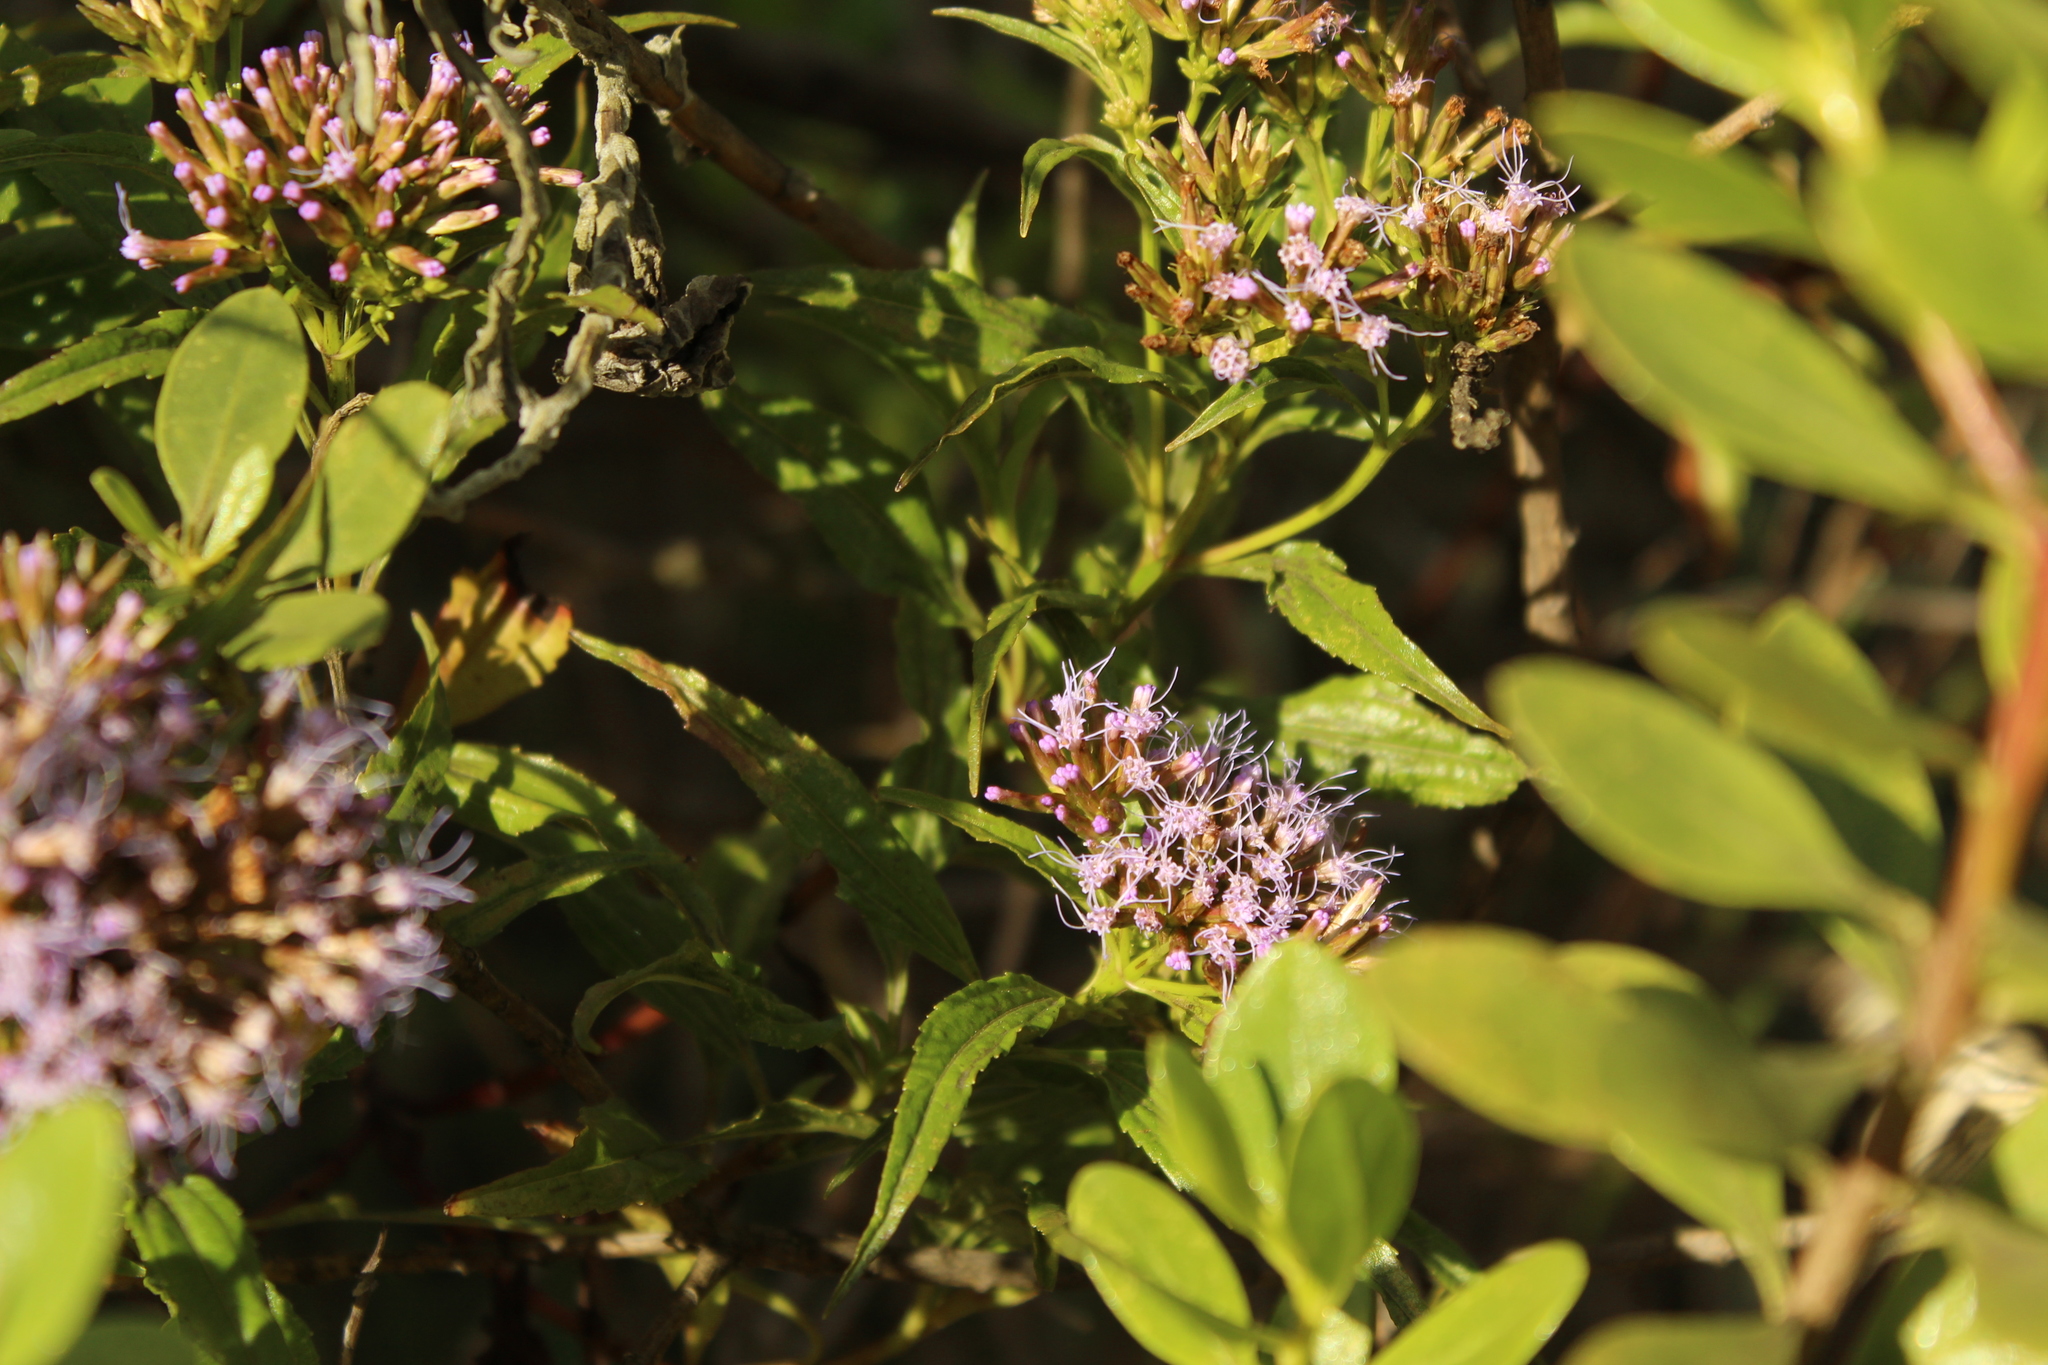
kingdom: Plantae
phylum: Tracheophyta
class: Magnoliopsida
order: Asterales
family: Asteraceae
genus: Chromolaena
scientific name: Chromolaena perglabra
